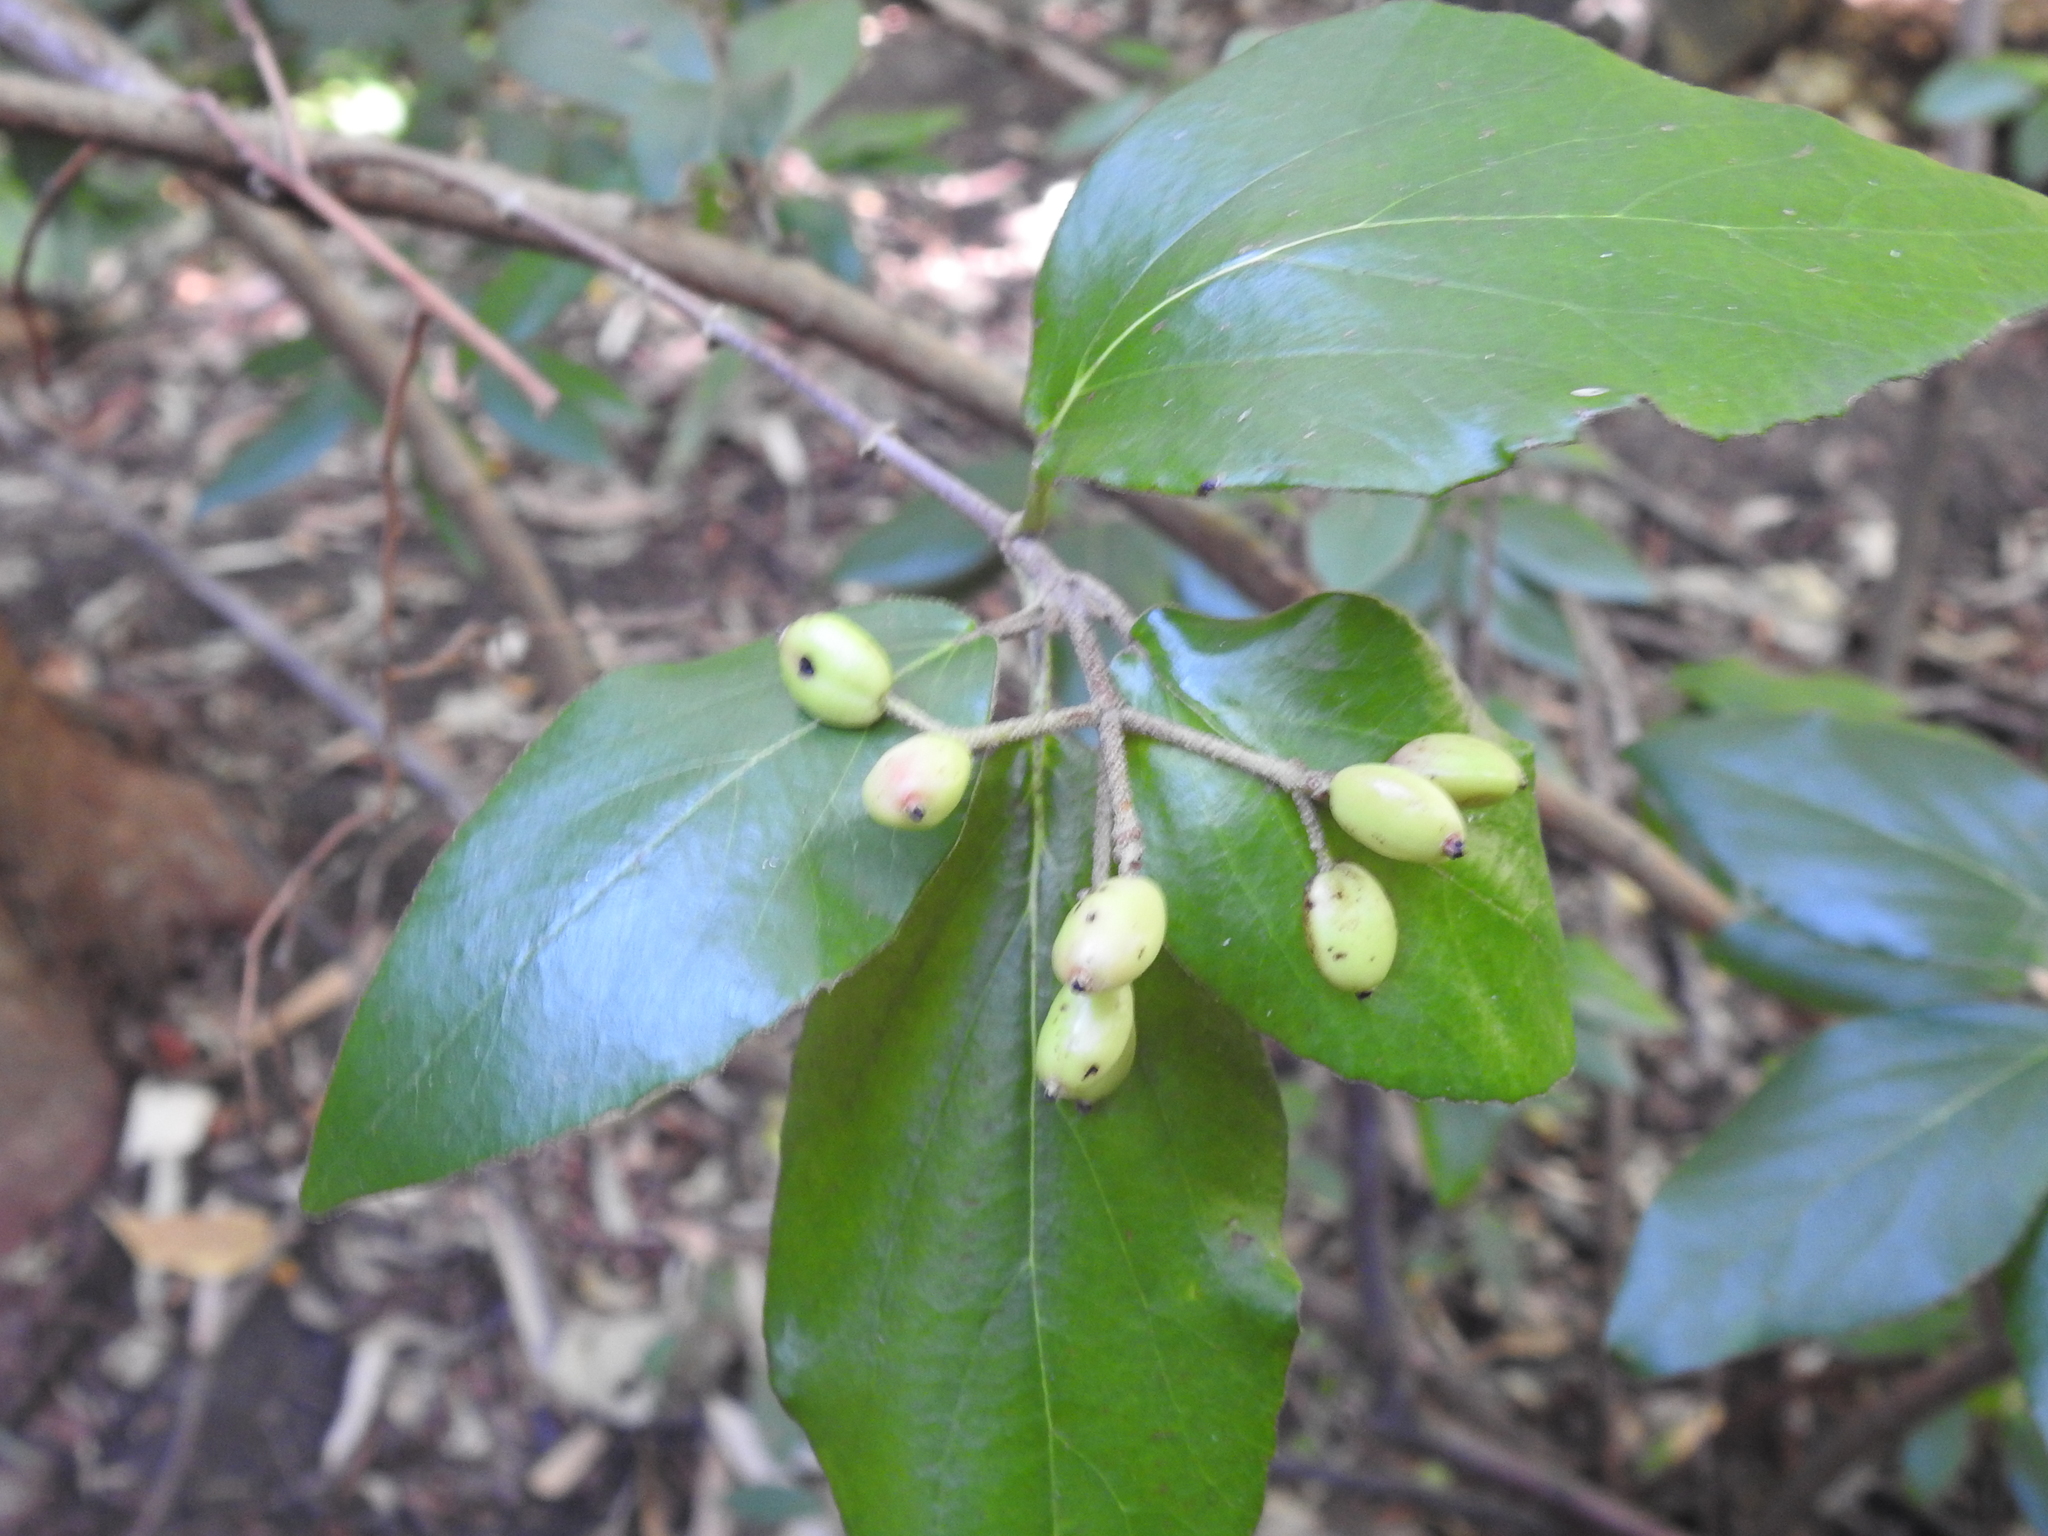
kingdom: Animalia
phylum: Arthropoda
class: Insecta
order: Lepidoptera
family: Gracillariidae
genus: Marmara
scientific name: Marmara viburnella
